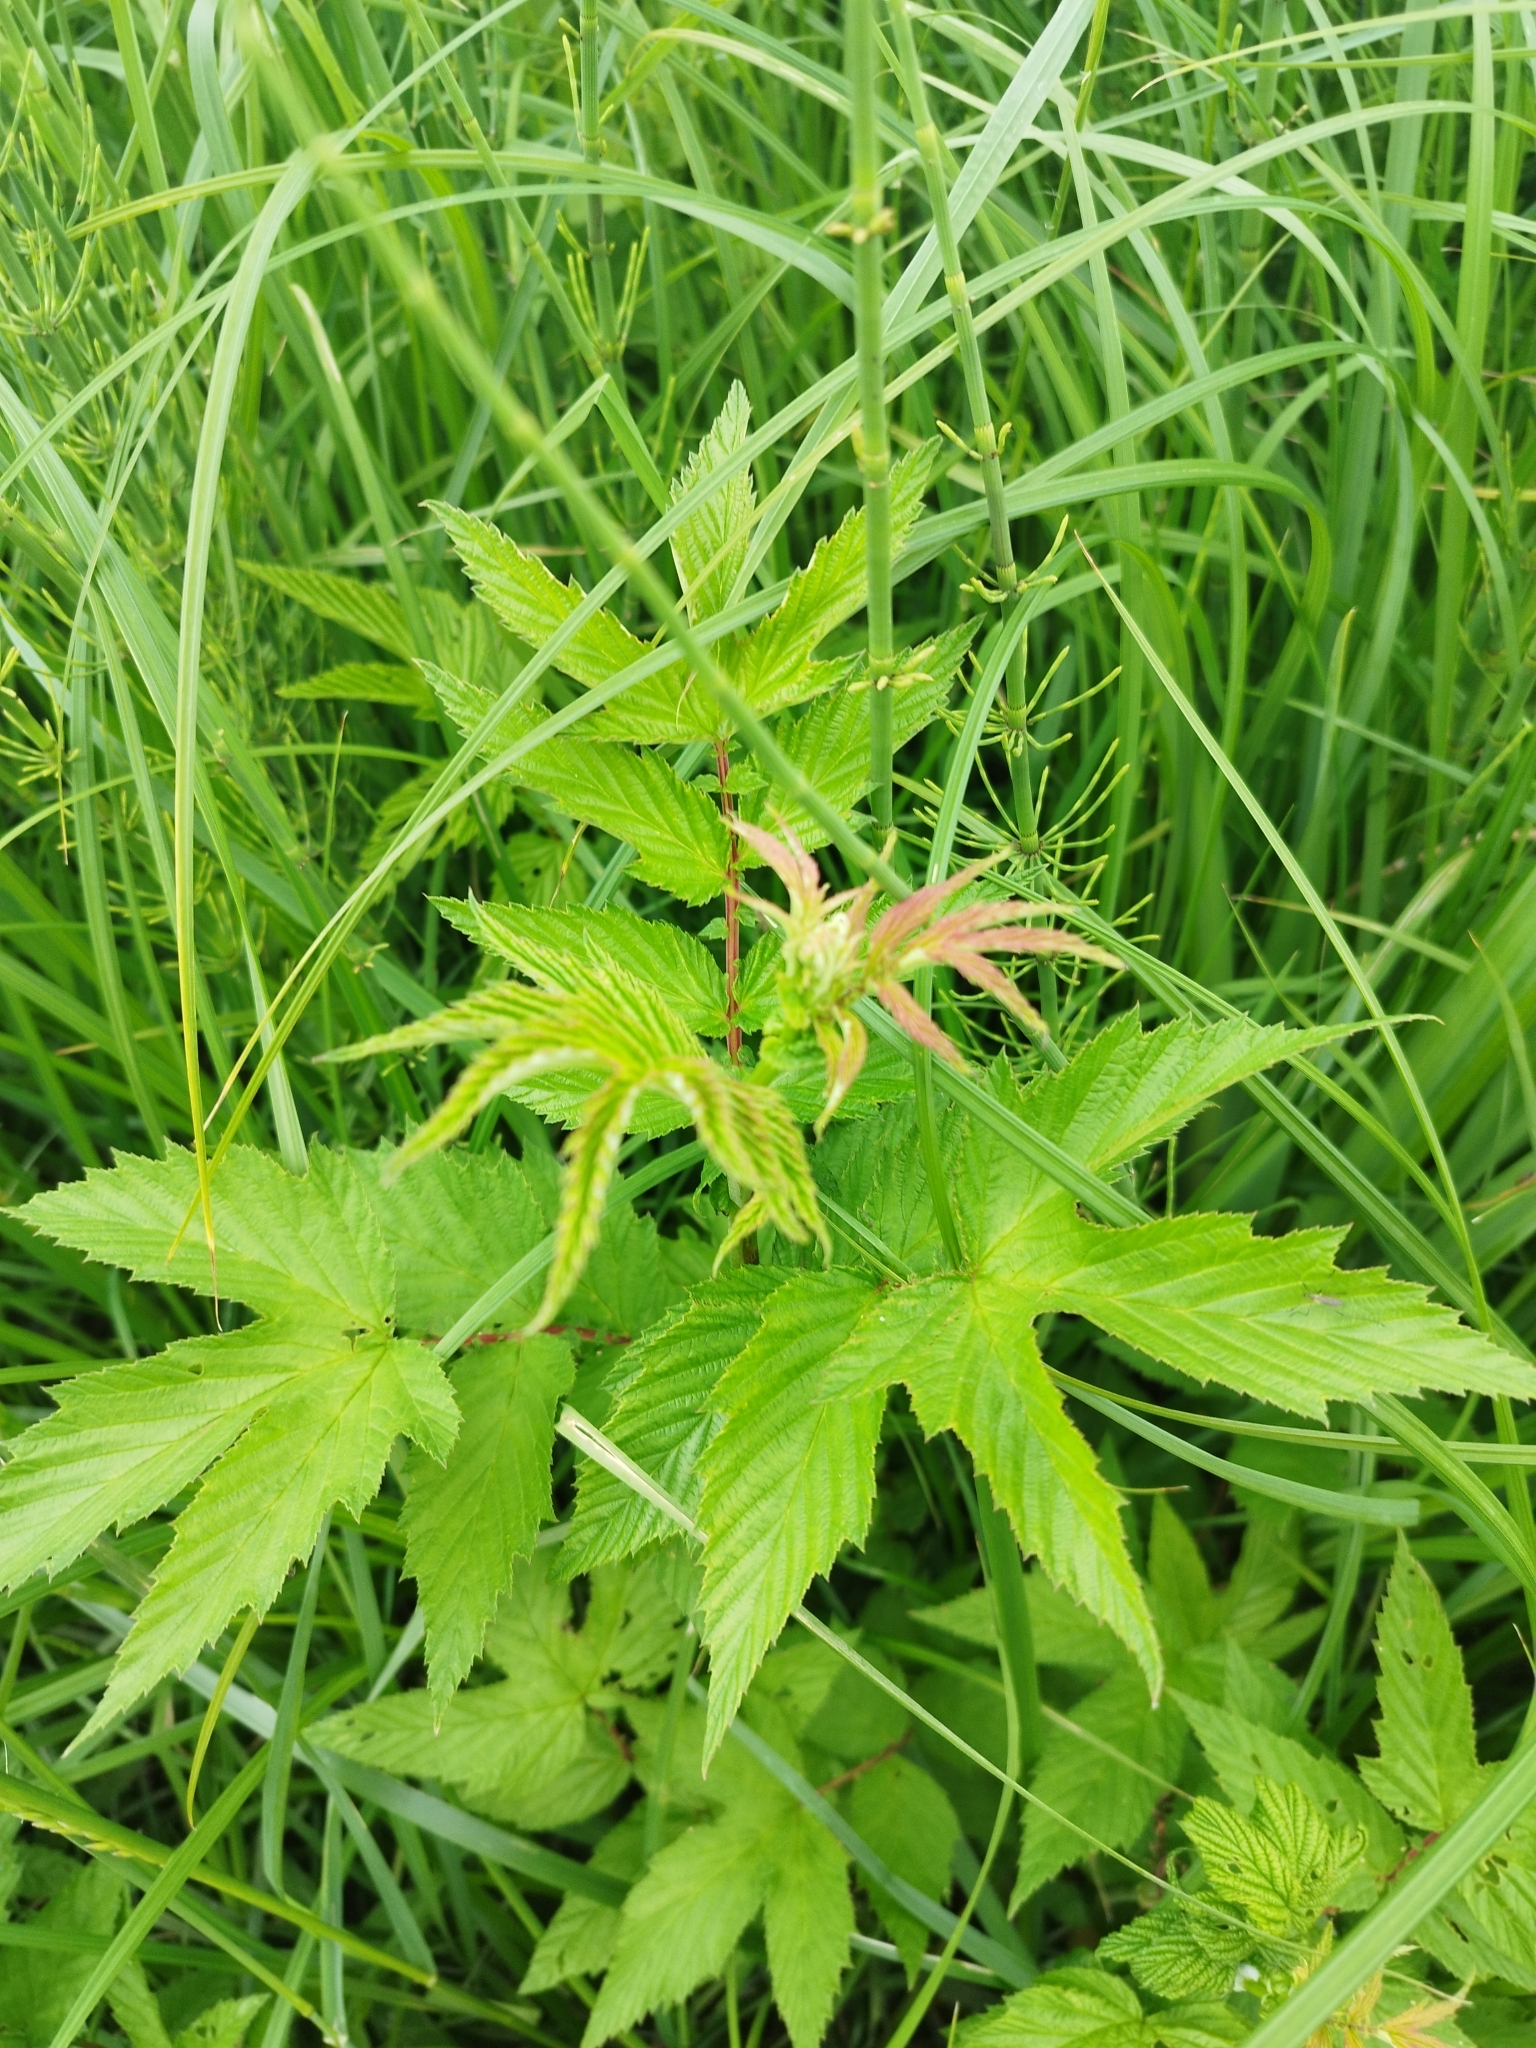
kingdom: Plantae
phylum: Tracheophyta
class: Magnoliopsida
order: Rosales
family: Rosaceae
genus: Filipendula
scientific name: Filipendula ulmaria
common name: Meadowsweet
